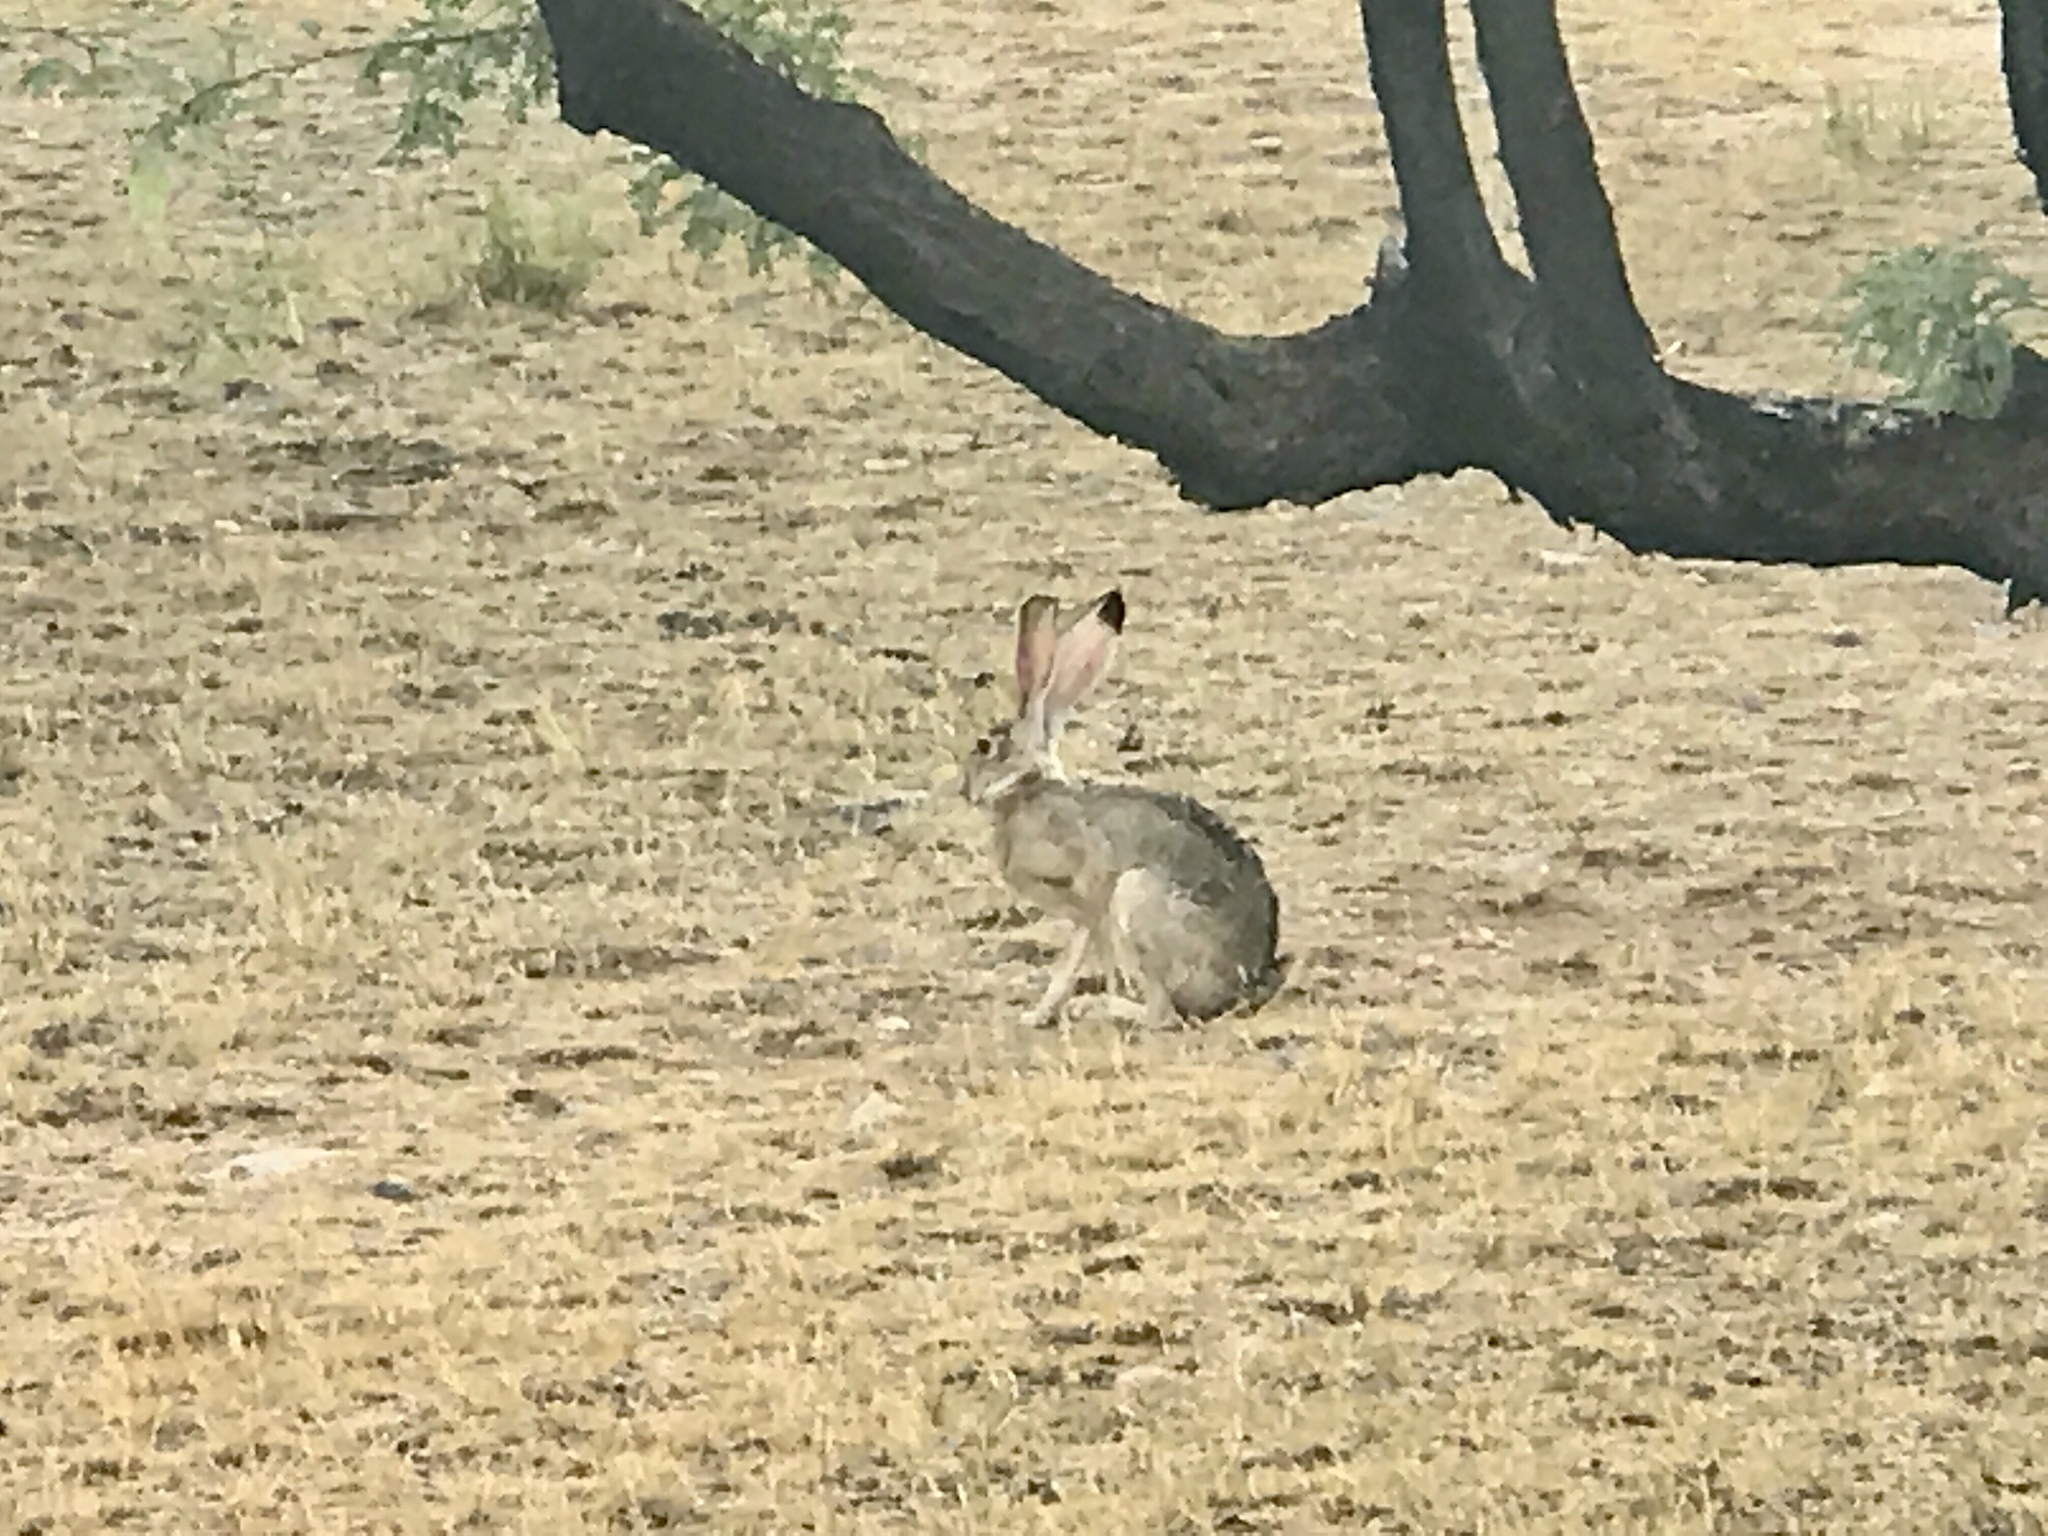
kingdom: Animalia
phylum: Chordata
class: Mammalia
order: Lagomorpha
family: Leporidae
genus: Lepus
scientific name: Lepus californicus
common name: Black-tailed jackrabbit
